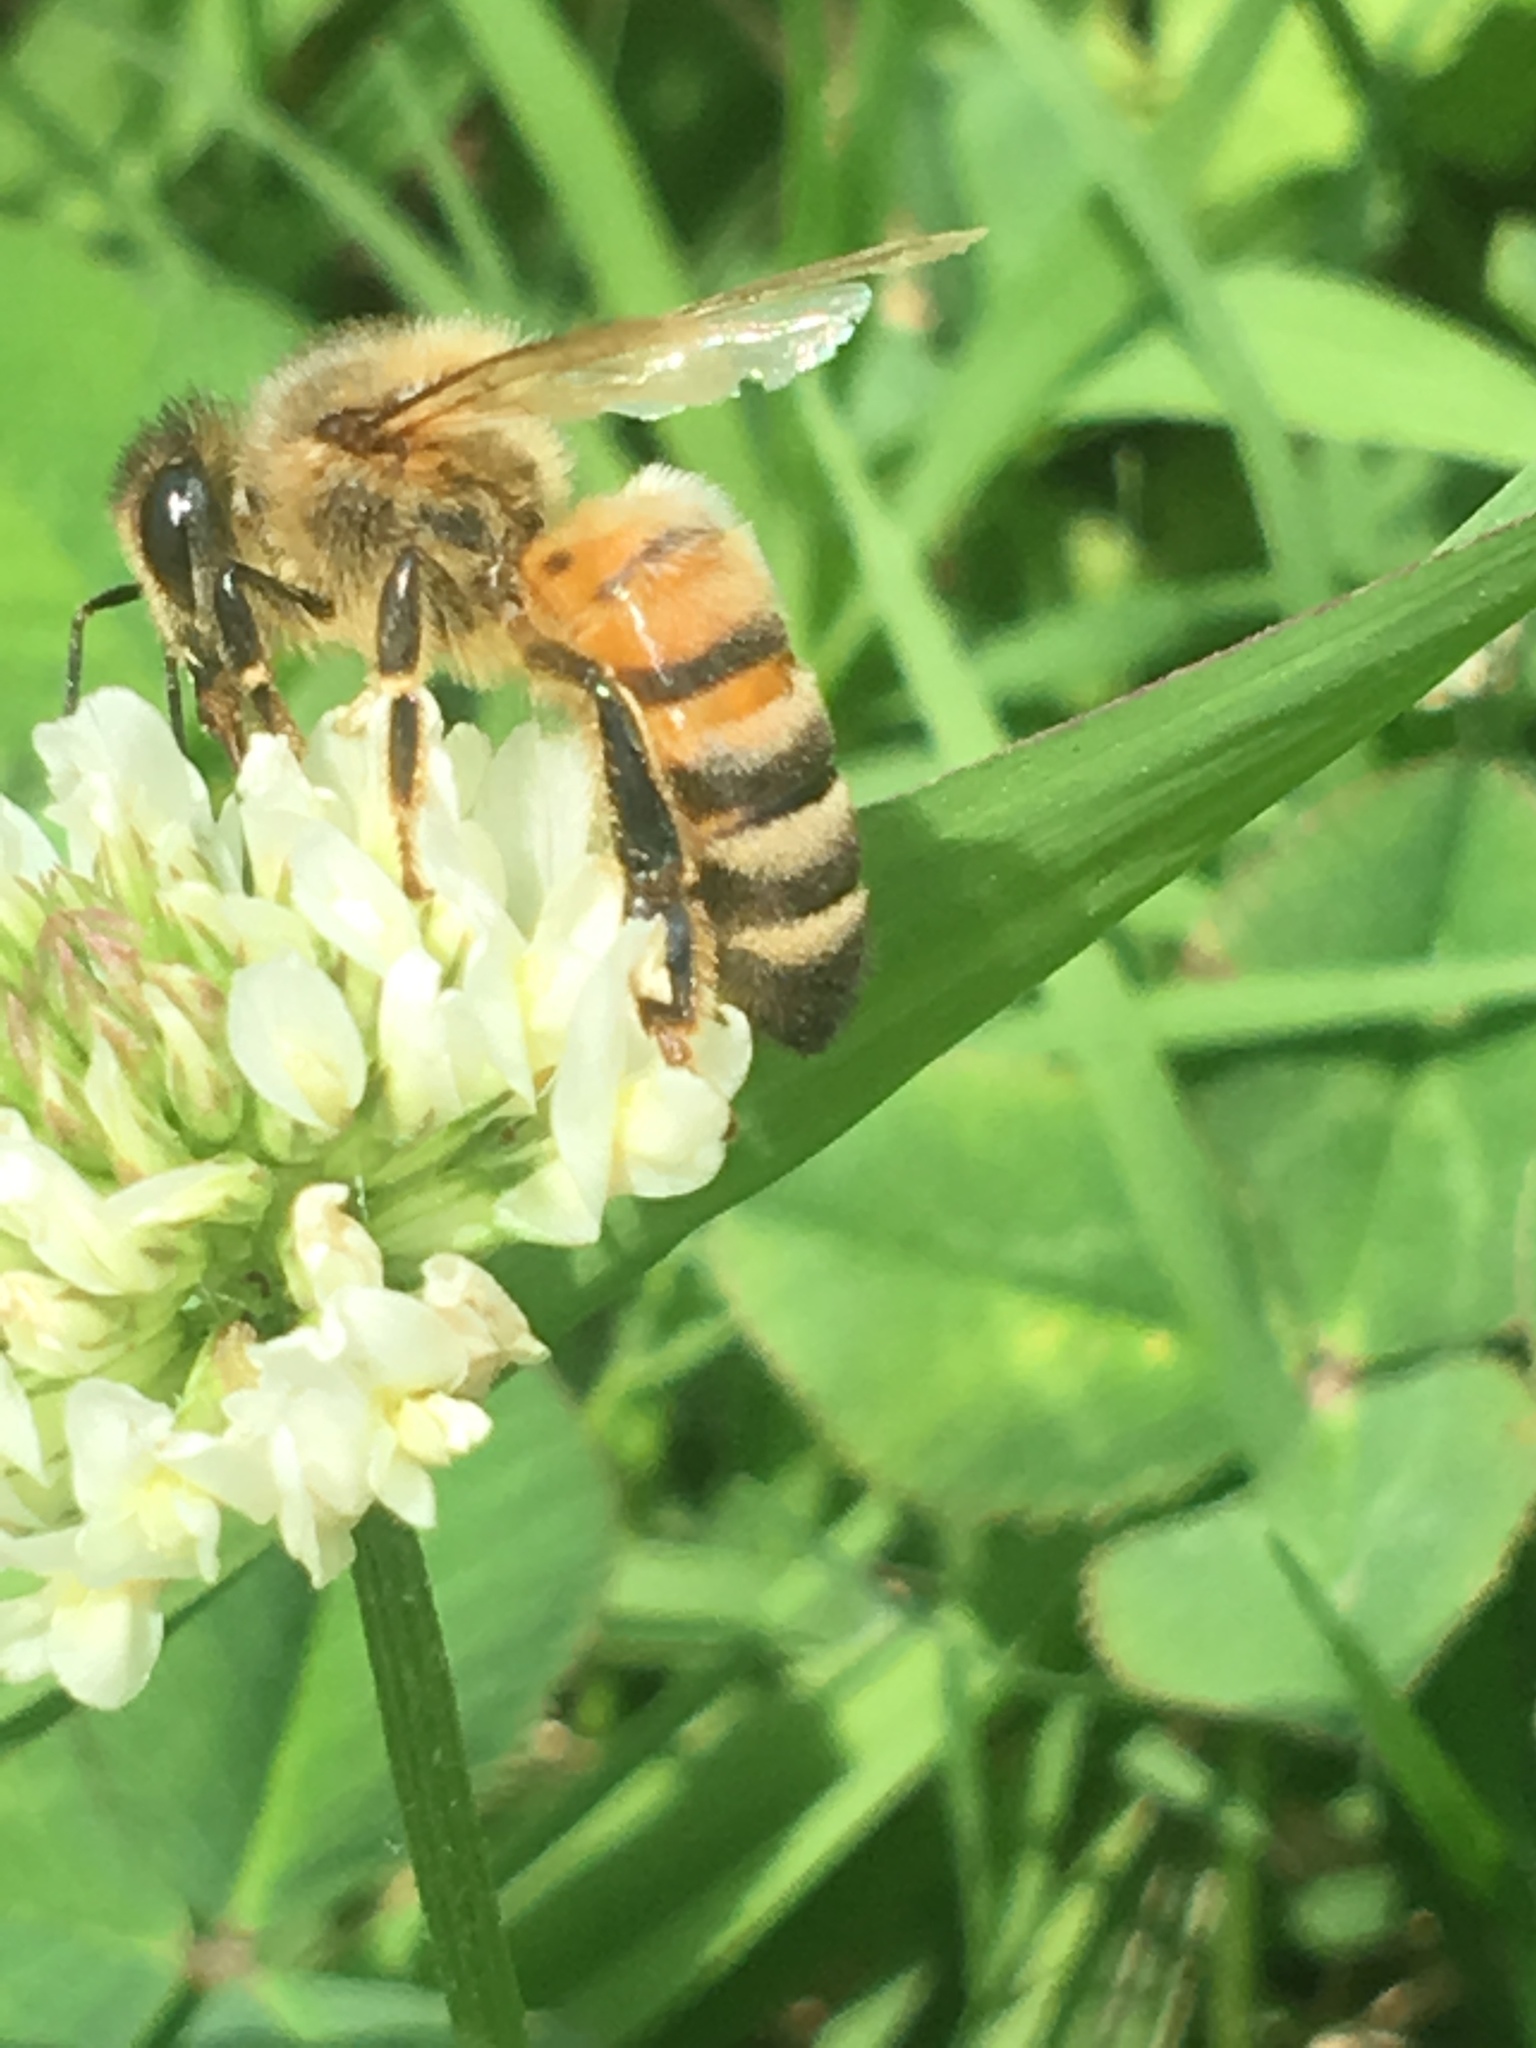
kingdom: Animalia
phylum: Arthropoda
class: Insecta
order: Hymenoptera
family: Apidae
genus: Apis
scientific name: Apis mellifera
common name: Honey bee
